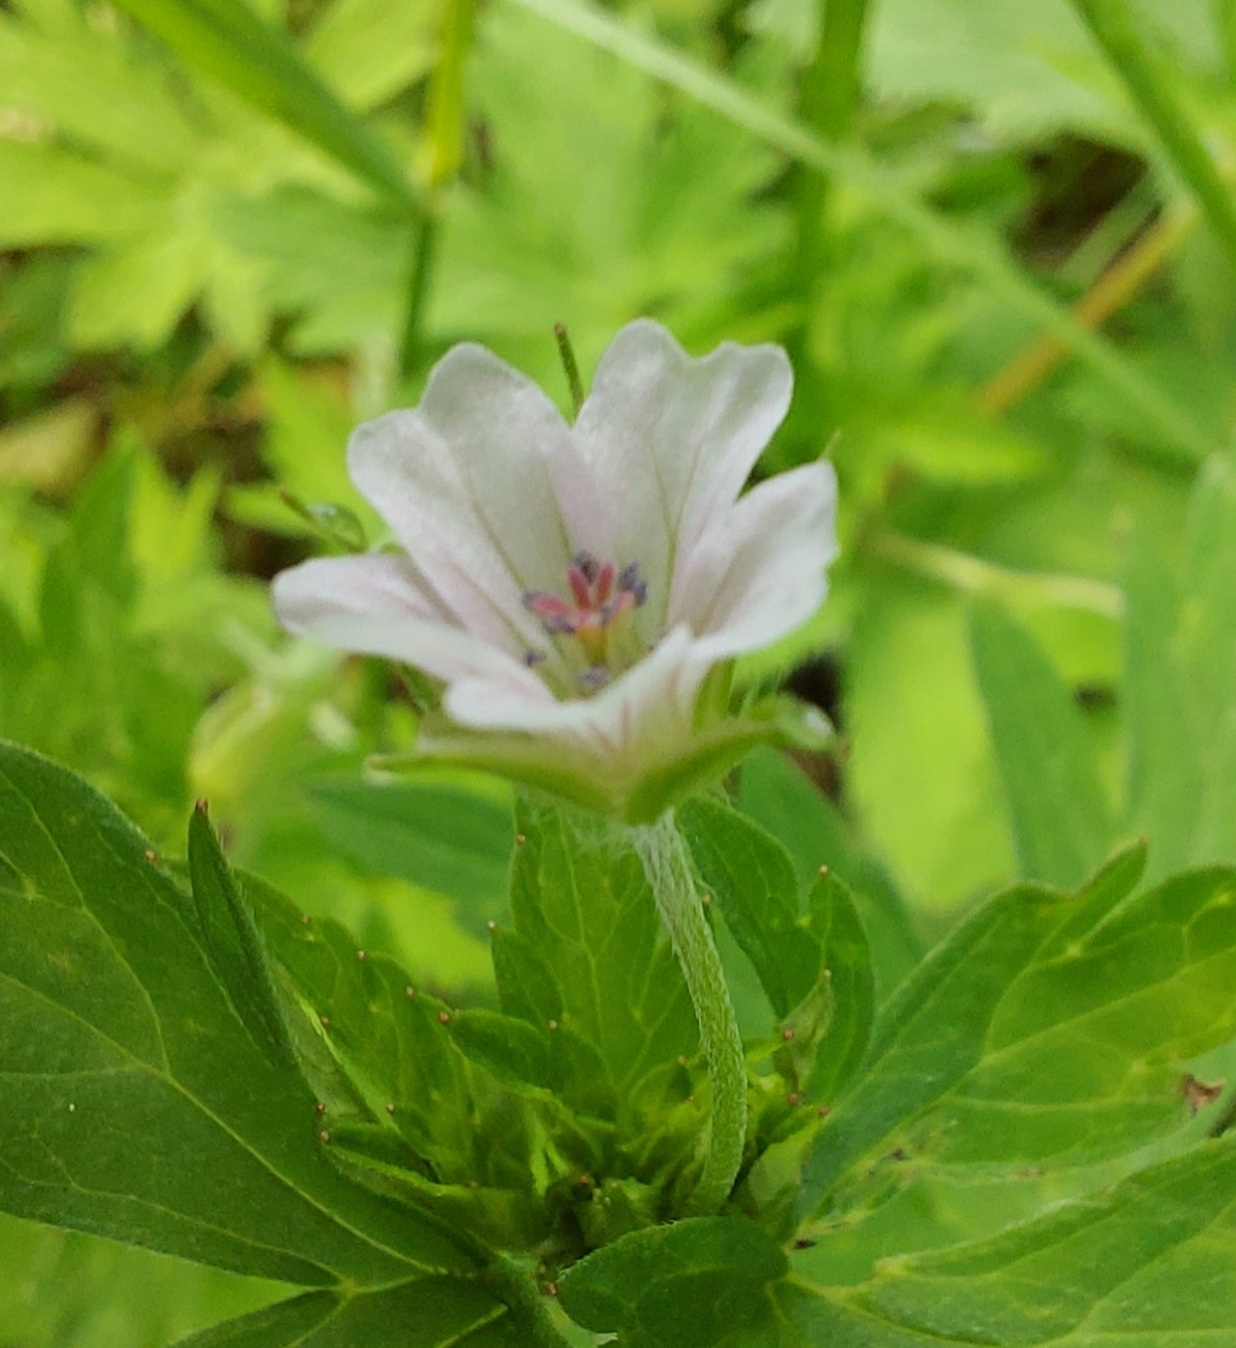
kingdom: Plantae
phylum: Tracheophyta
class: Magnoliopsida
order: Geraniales
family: Geraniaceae
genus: Geranium
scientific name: Geranium sibiricum
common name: Siberian crane's-bill
